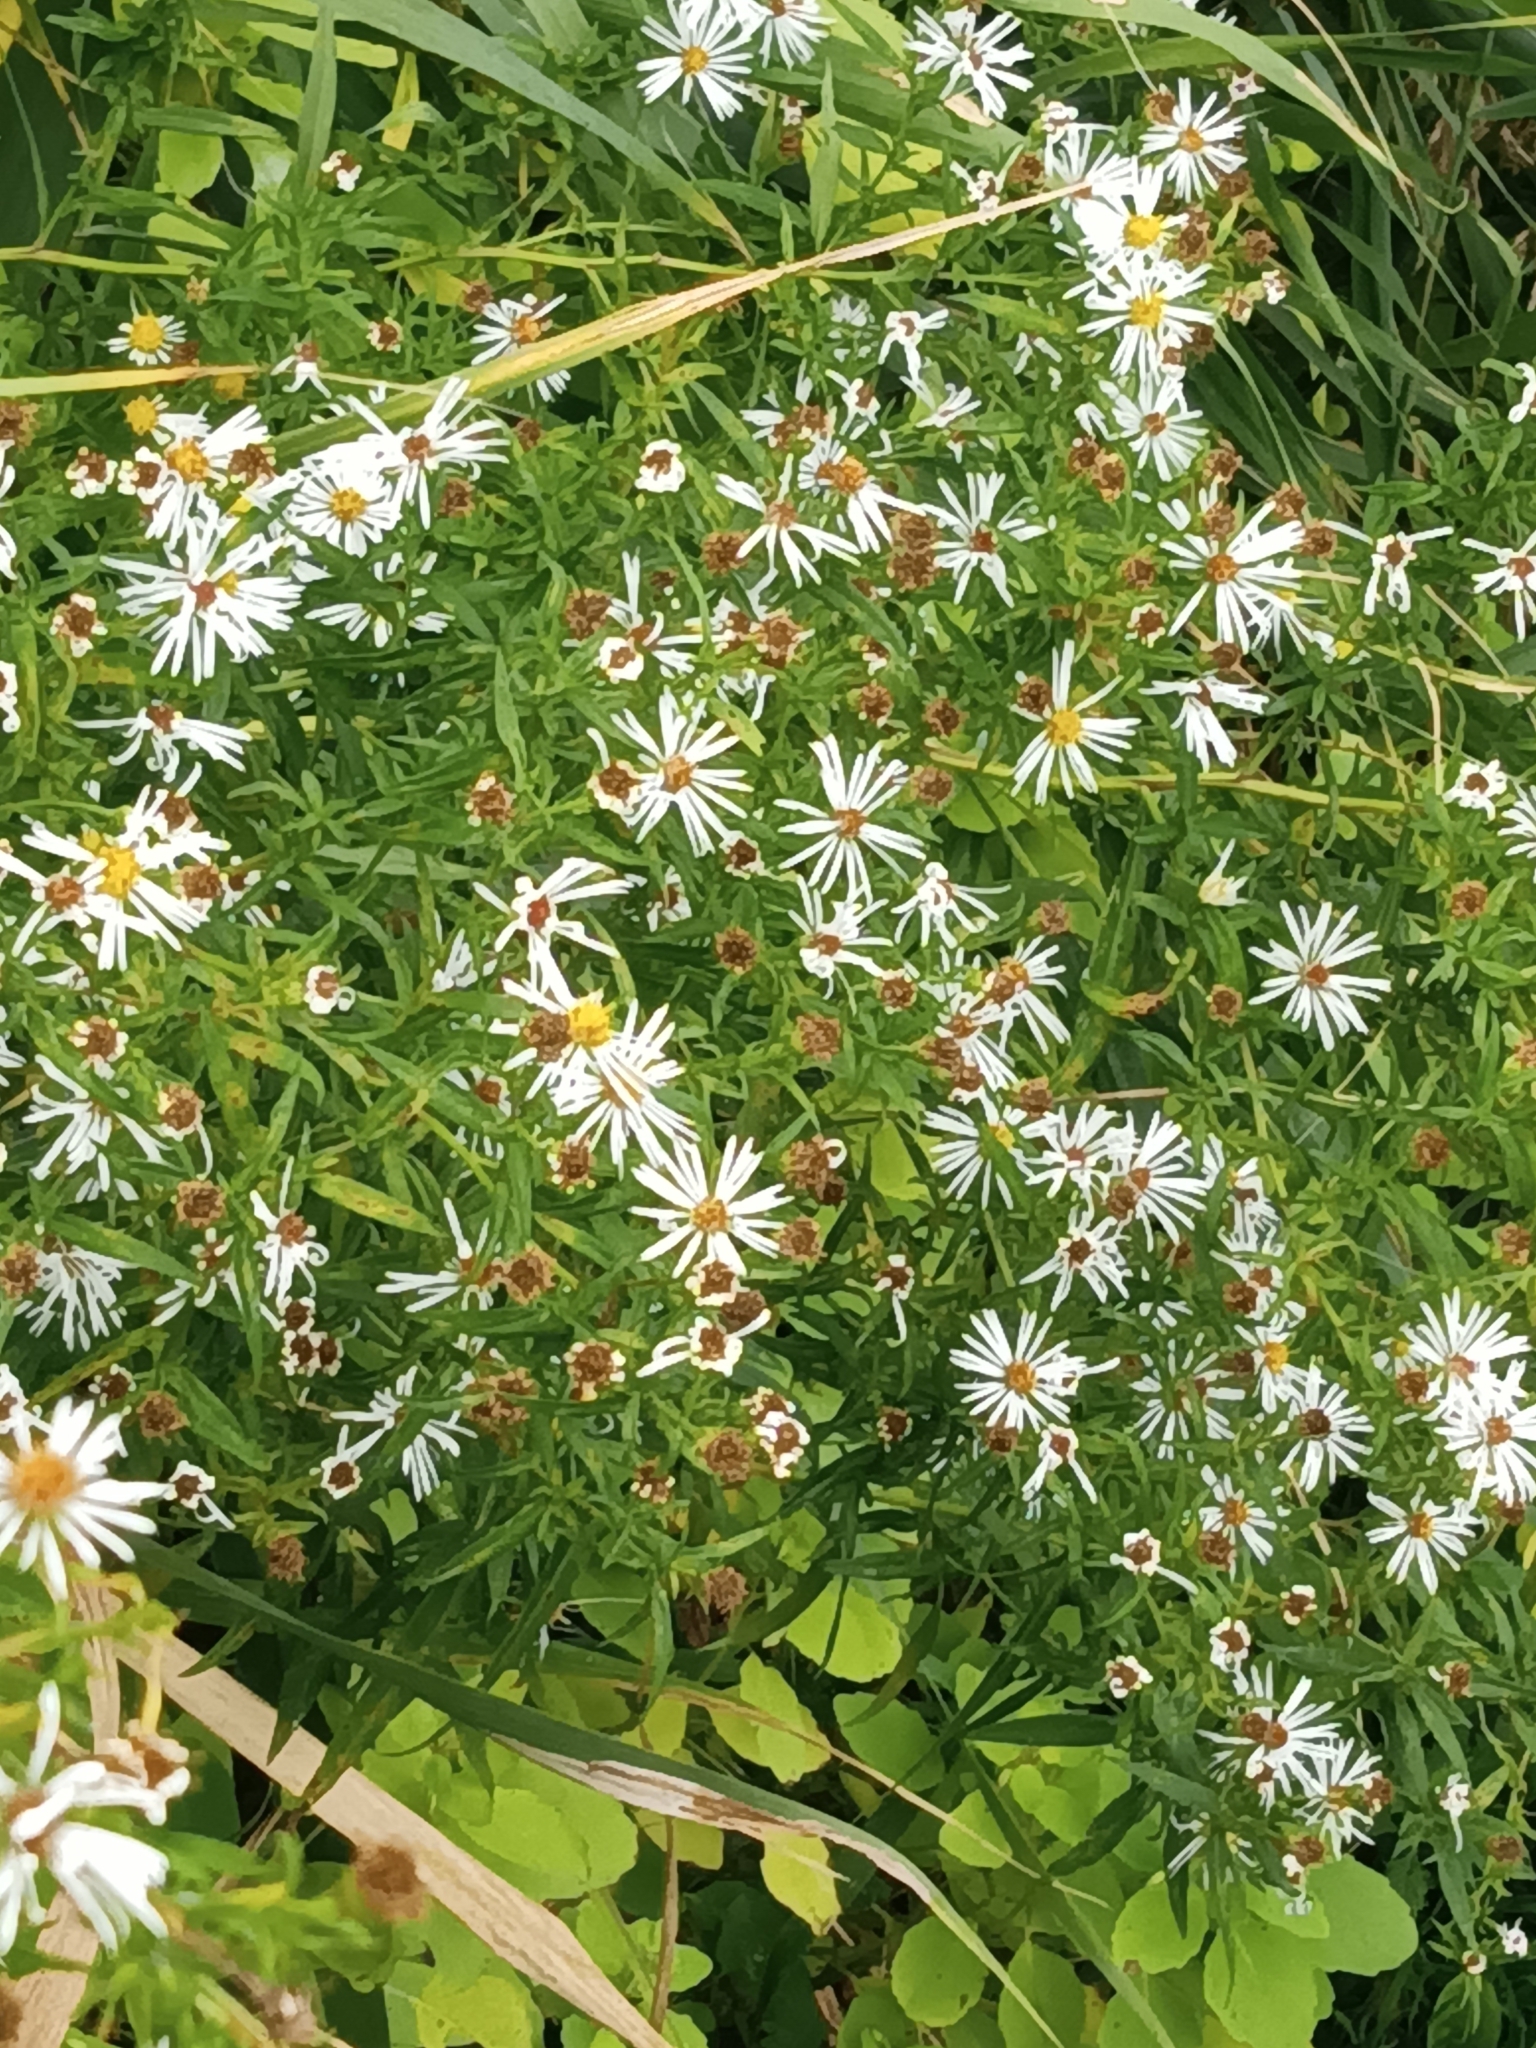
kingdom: Plantae
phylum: Tracheophyta
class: Magnoliopsida
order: Asterales
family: Asteraceae
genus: Symphyotrichum
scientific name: Symphyotrichum lanceolatum
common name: Panicled aster
